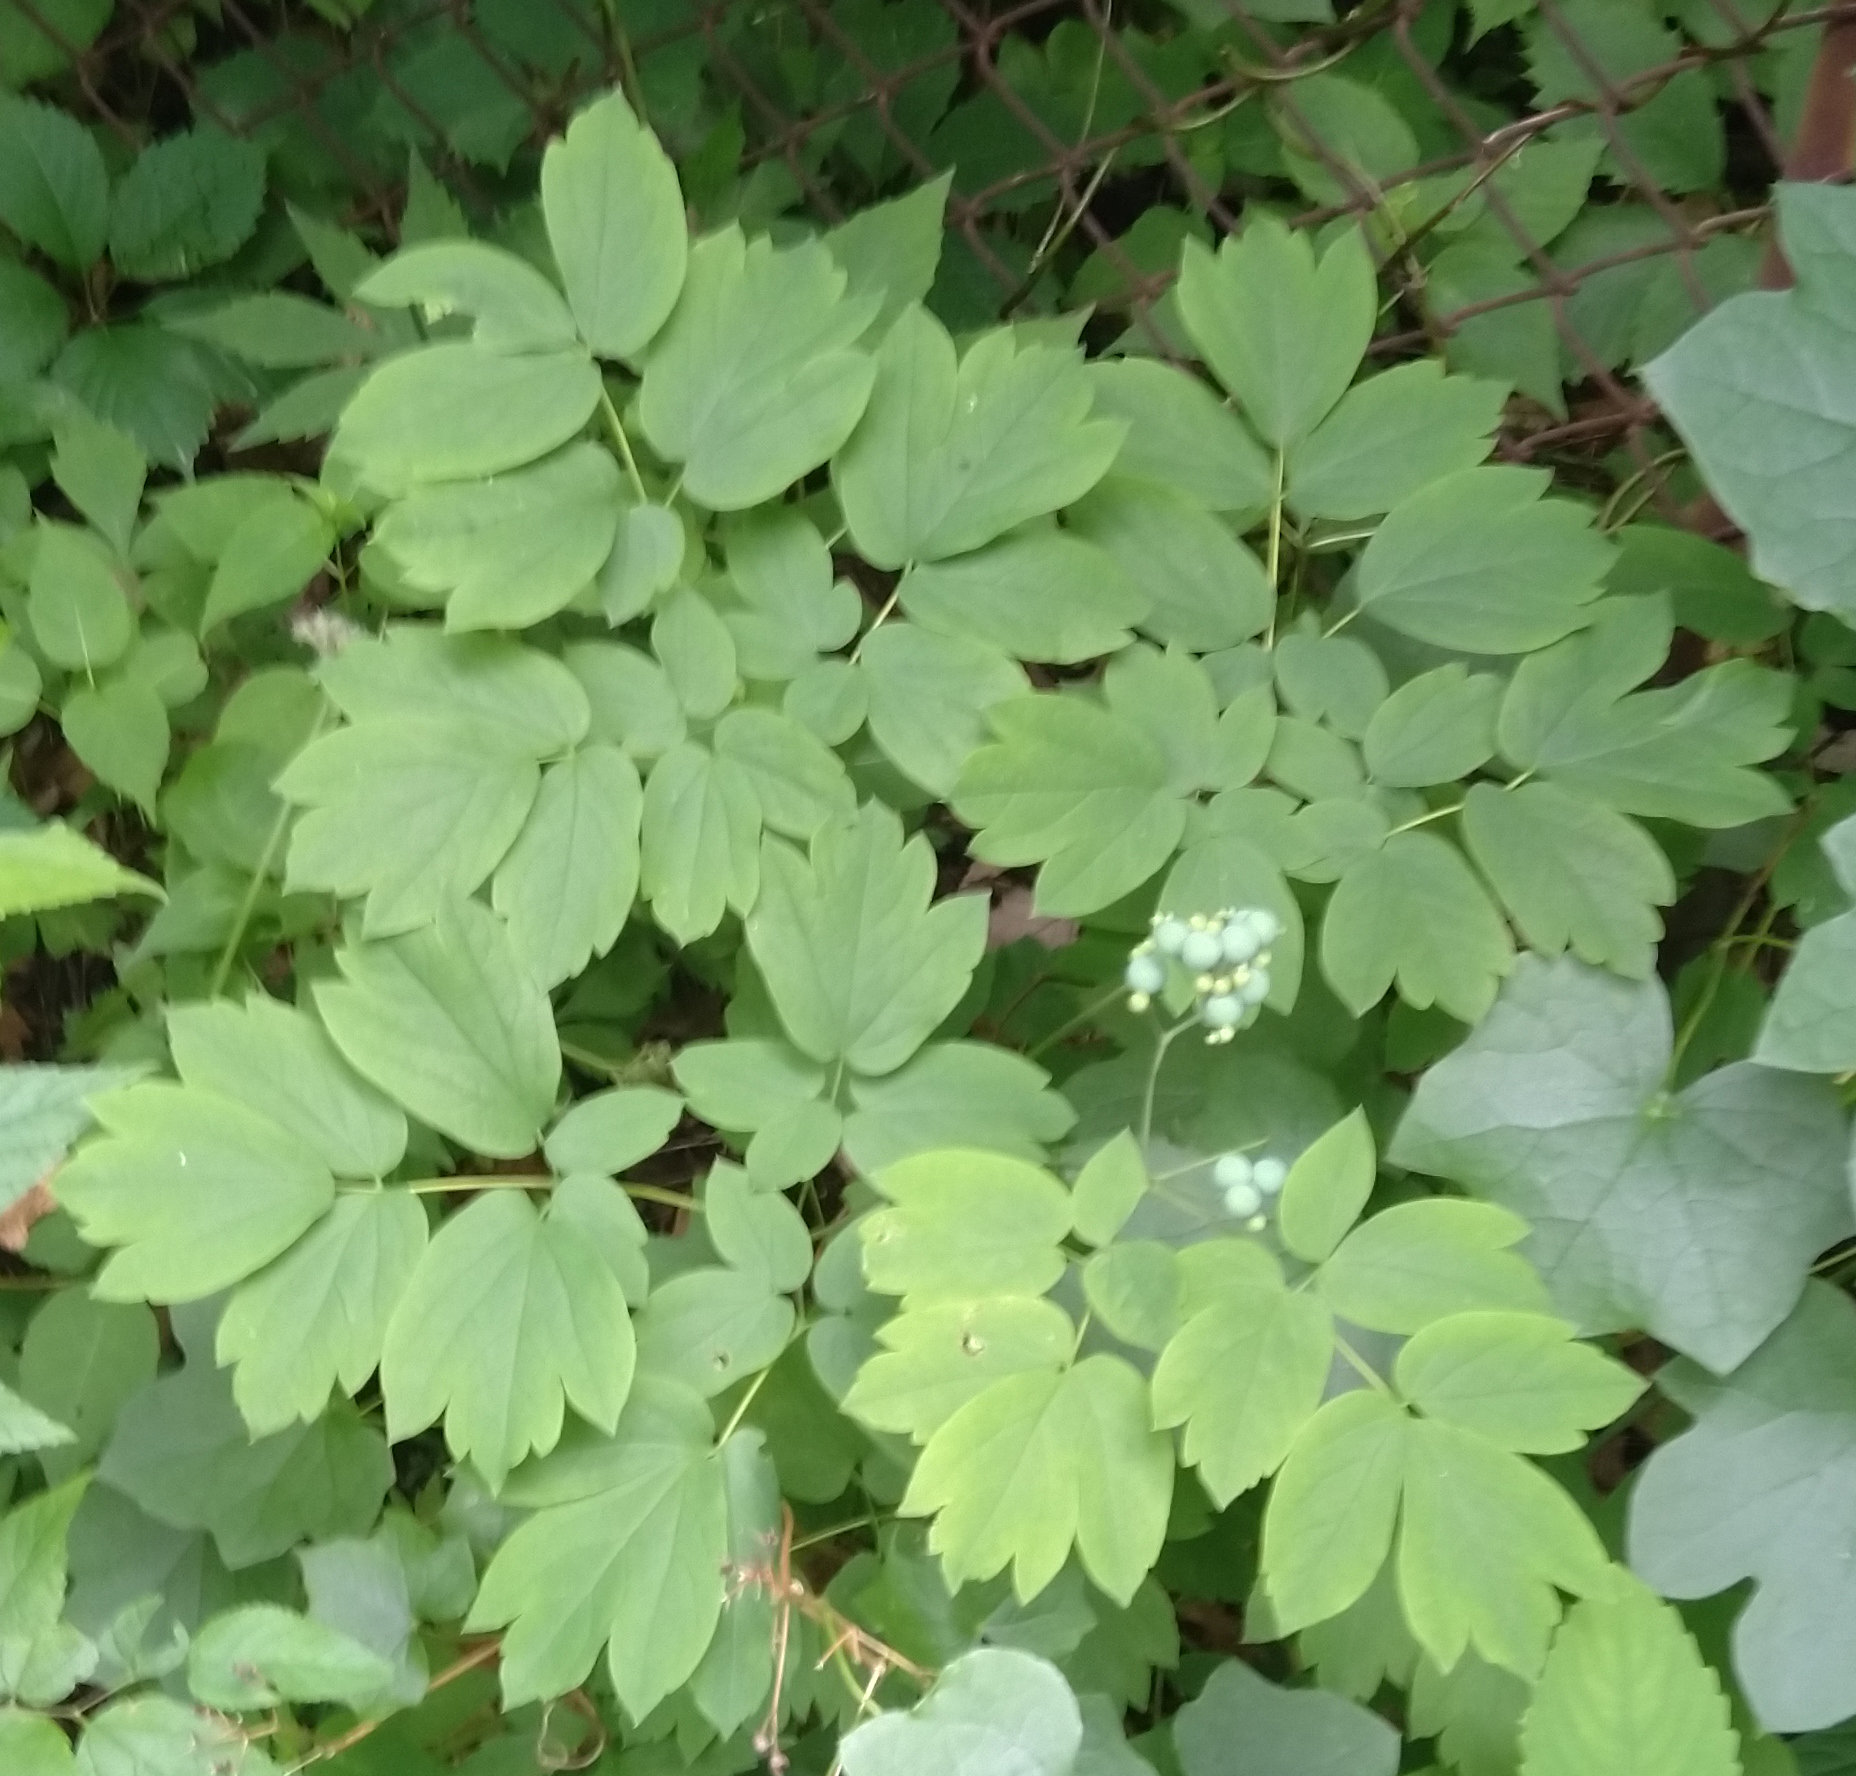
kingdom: Plantae
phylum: Tracheophyta
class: Magnoliopsida
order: Ranunculales
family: Berberidaceae
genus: Caulophyllum
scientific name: Caulophyllum thalictroides
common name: Blue cohosh
